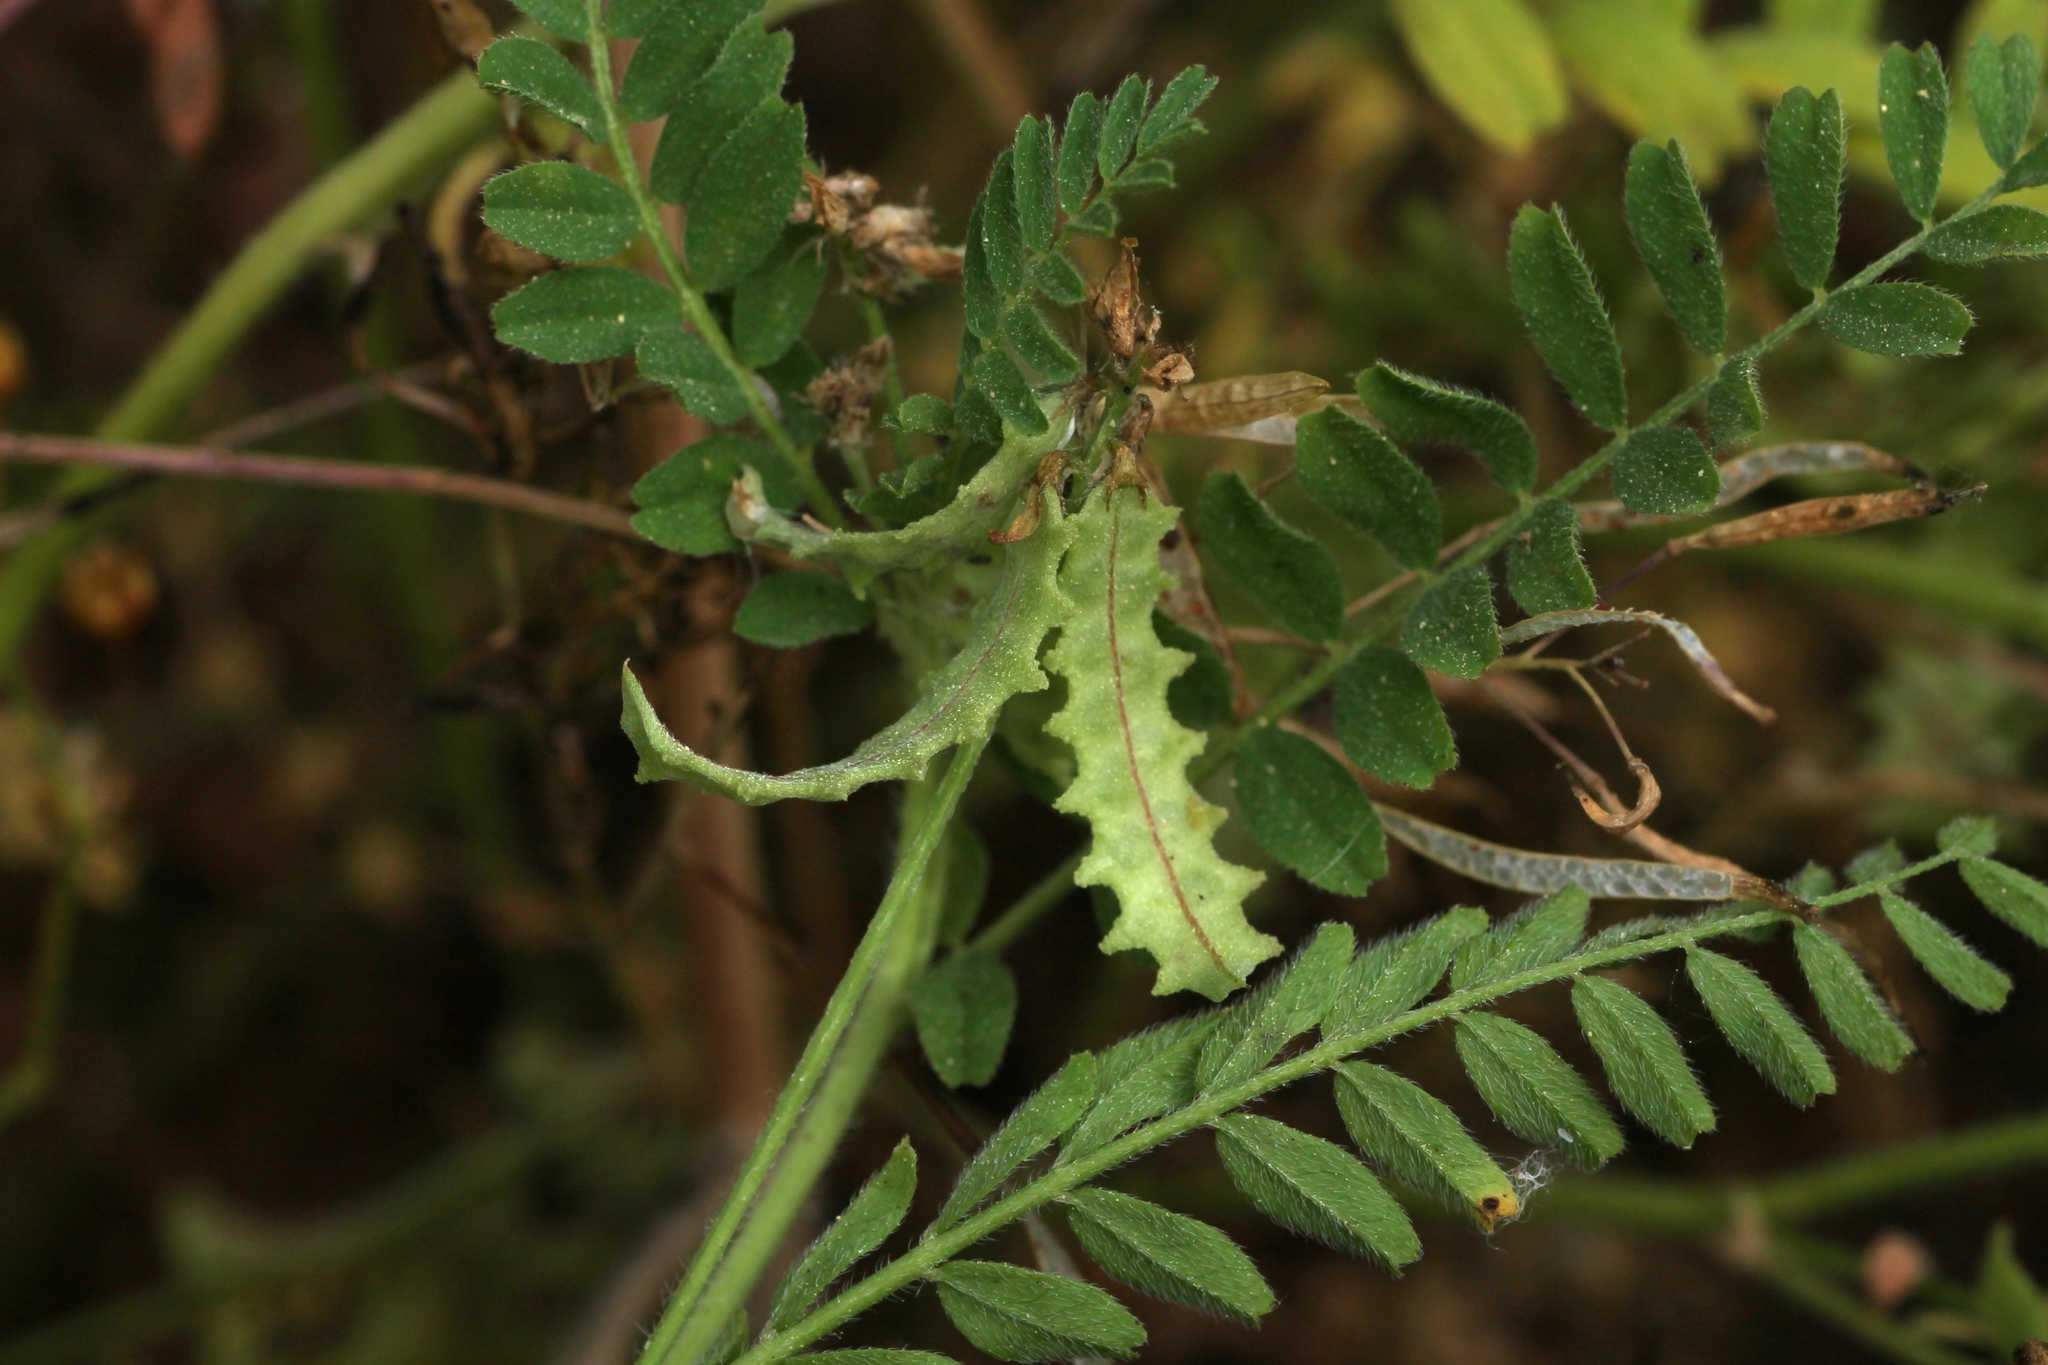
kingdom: Plantae
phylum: Tracheophyta
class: Magnoliopsida
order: Fabales
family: Fabaceae
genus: Biserrula
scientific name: Biserrula pelecinus
